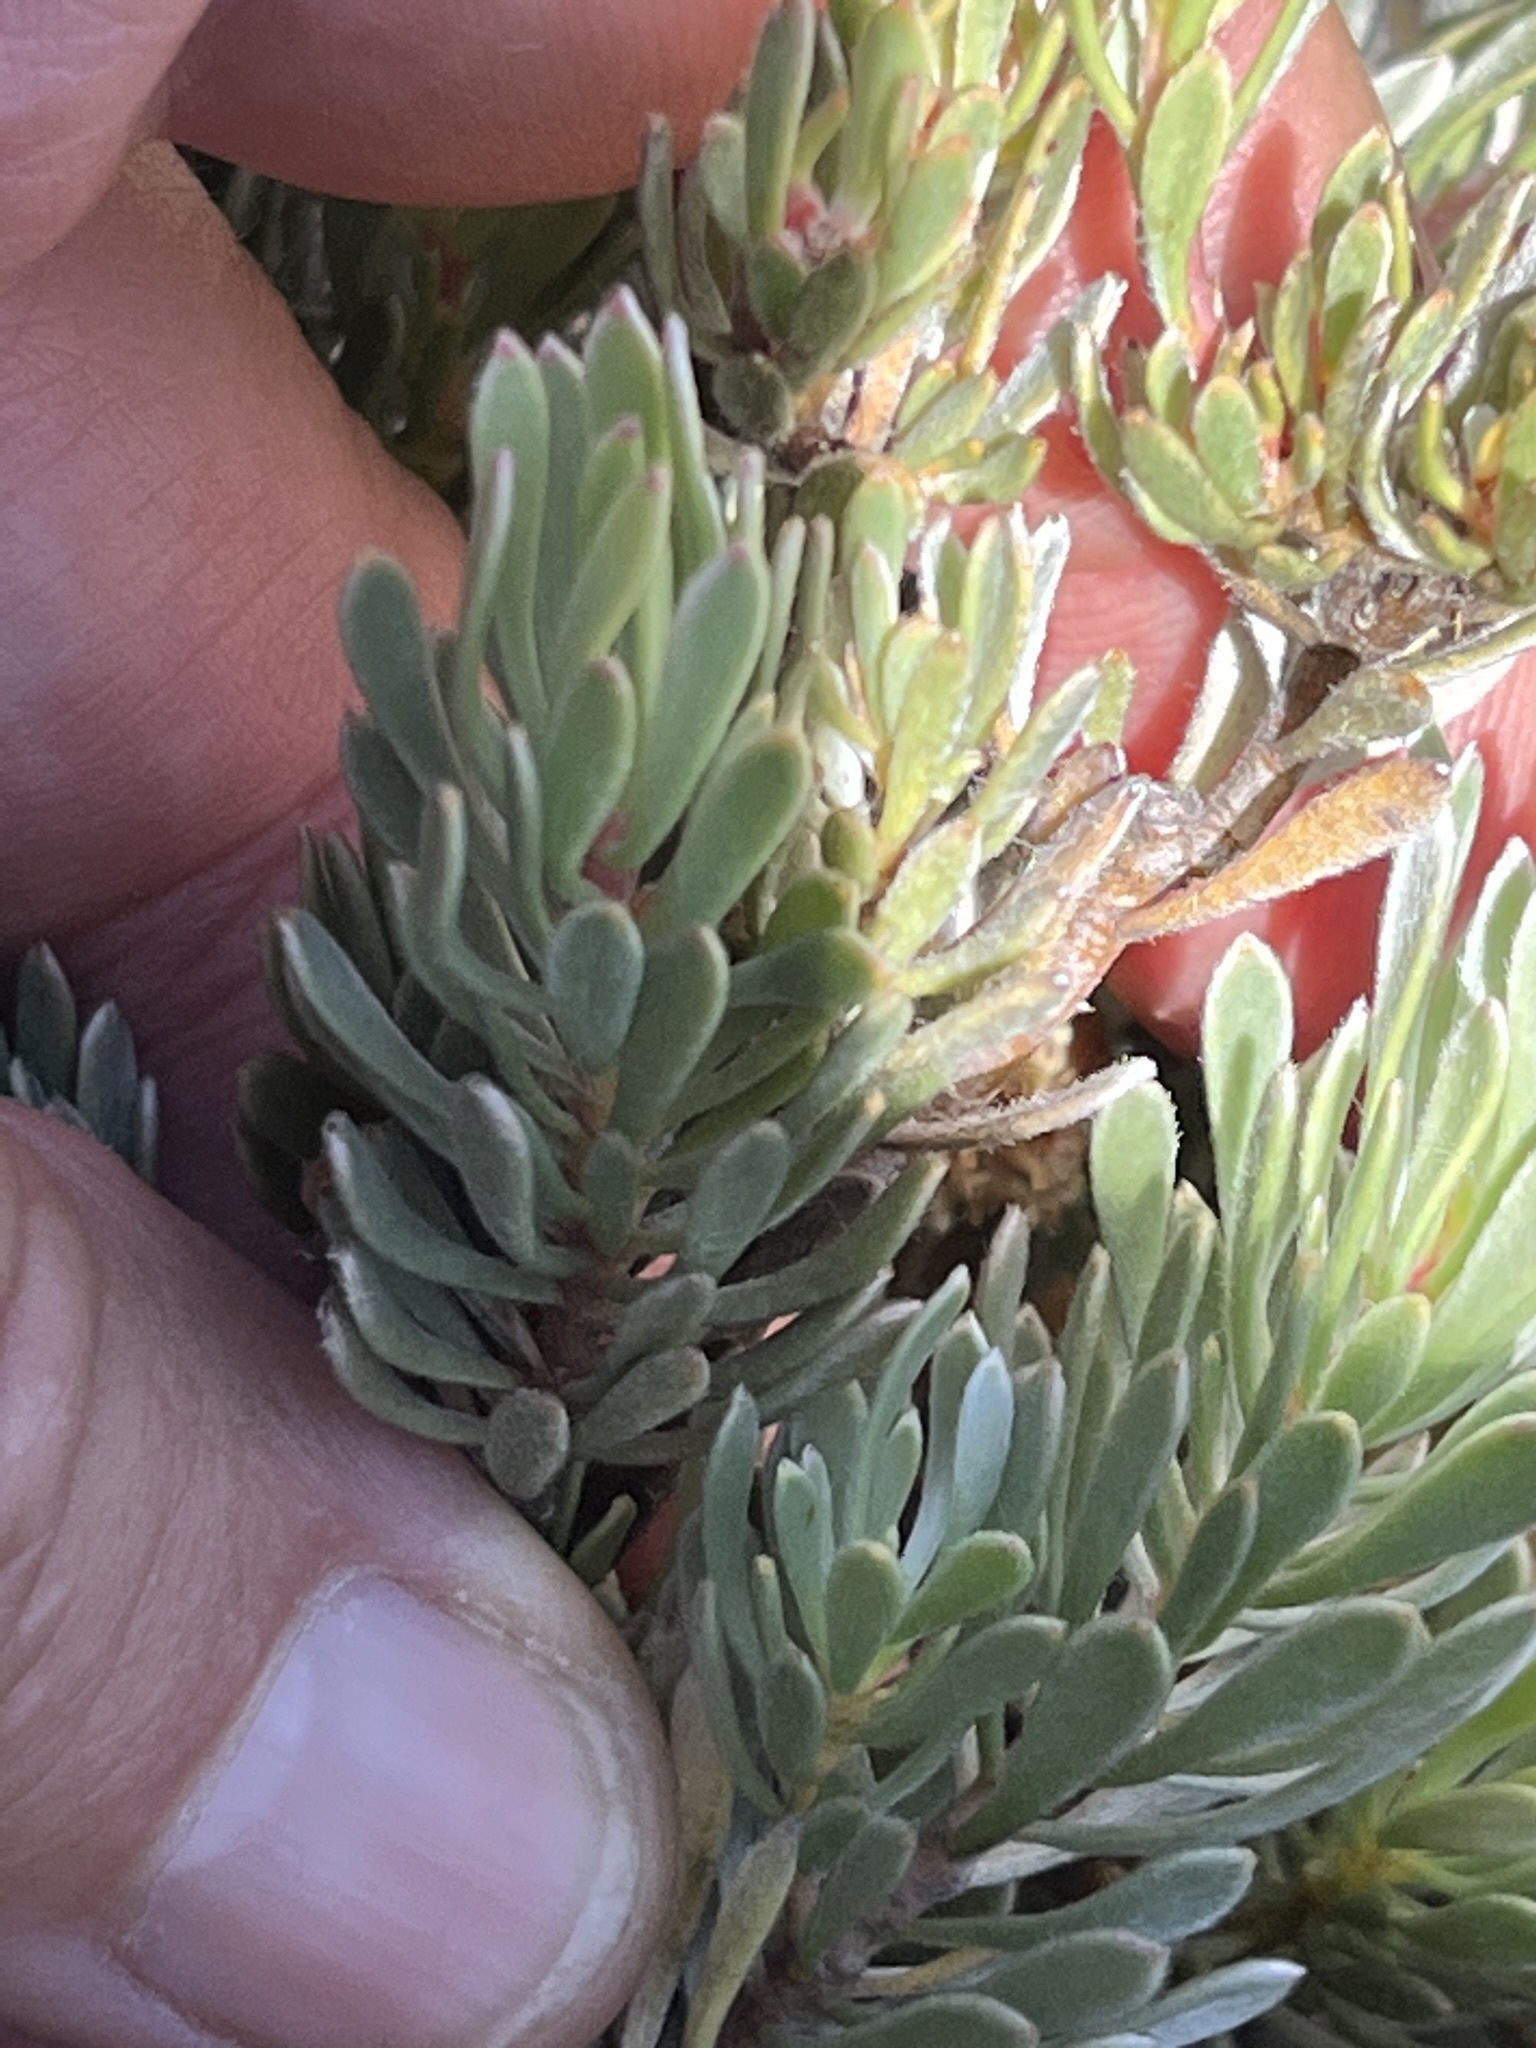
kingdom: Plantae
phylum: Tracheophyta
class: Magnoliopsida
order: Proteales
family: Proteaceae
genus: Leucadendron
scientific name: Leucadendron nitidum
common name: Bokkeveld conebush
